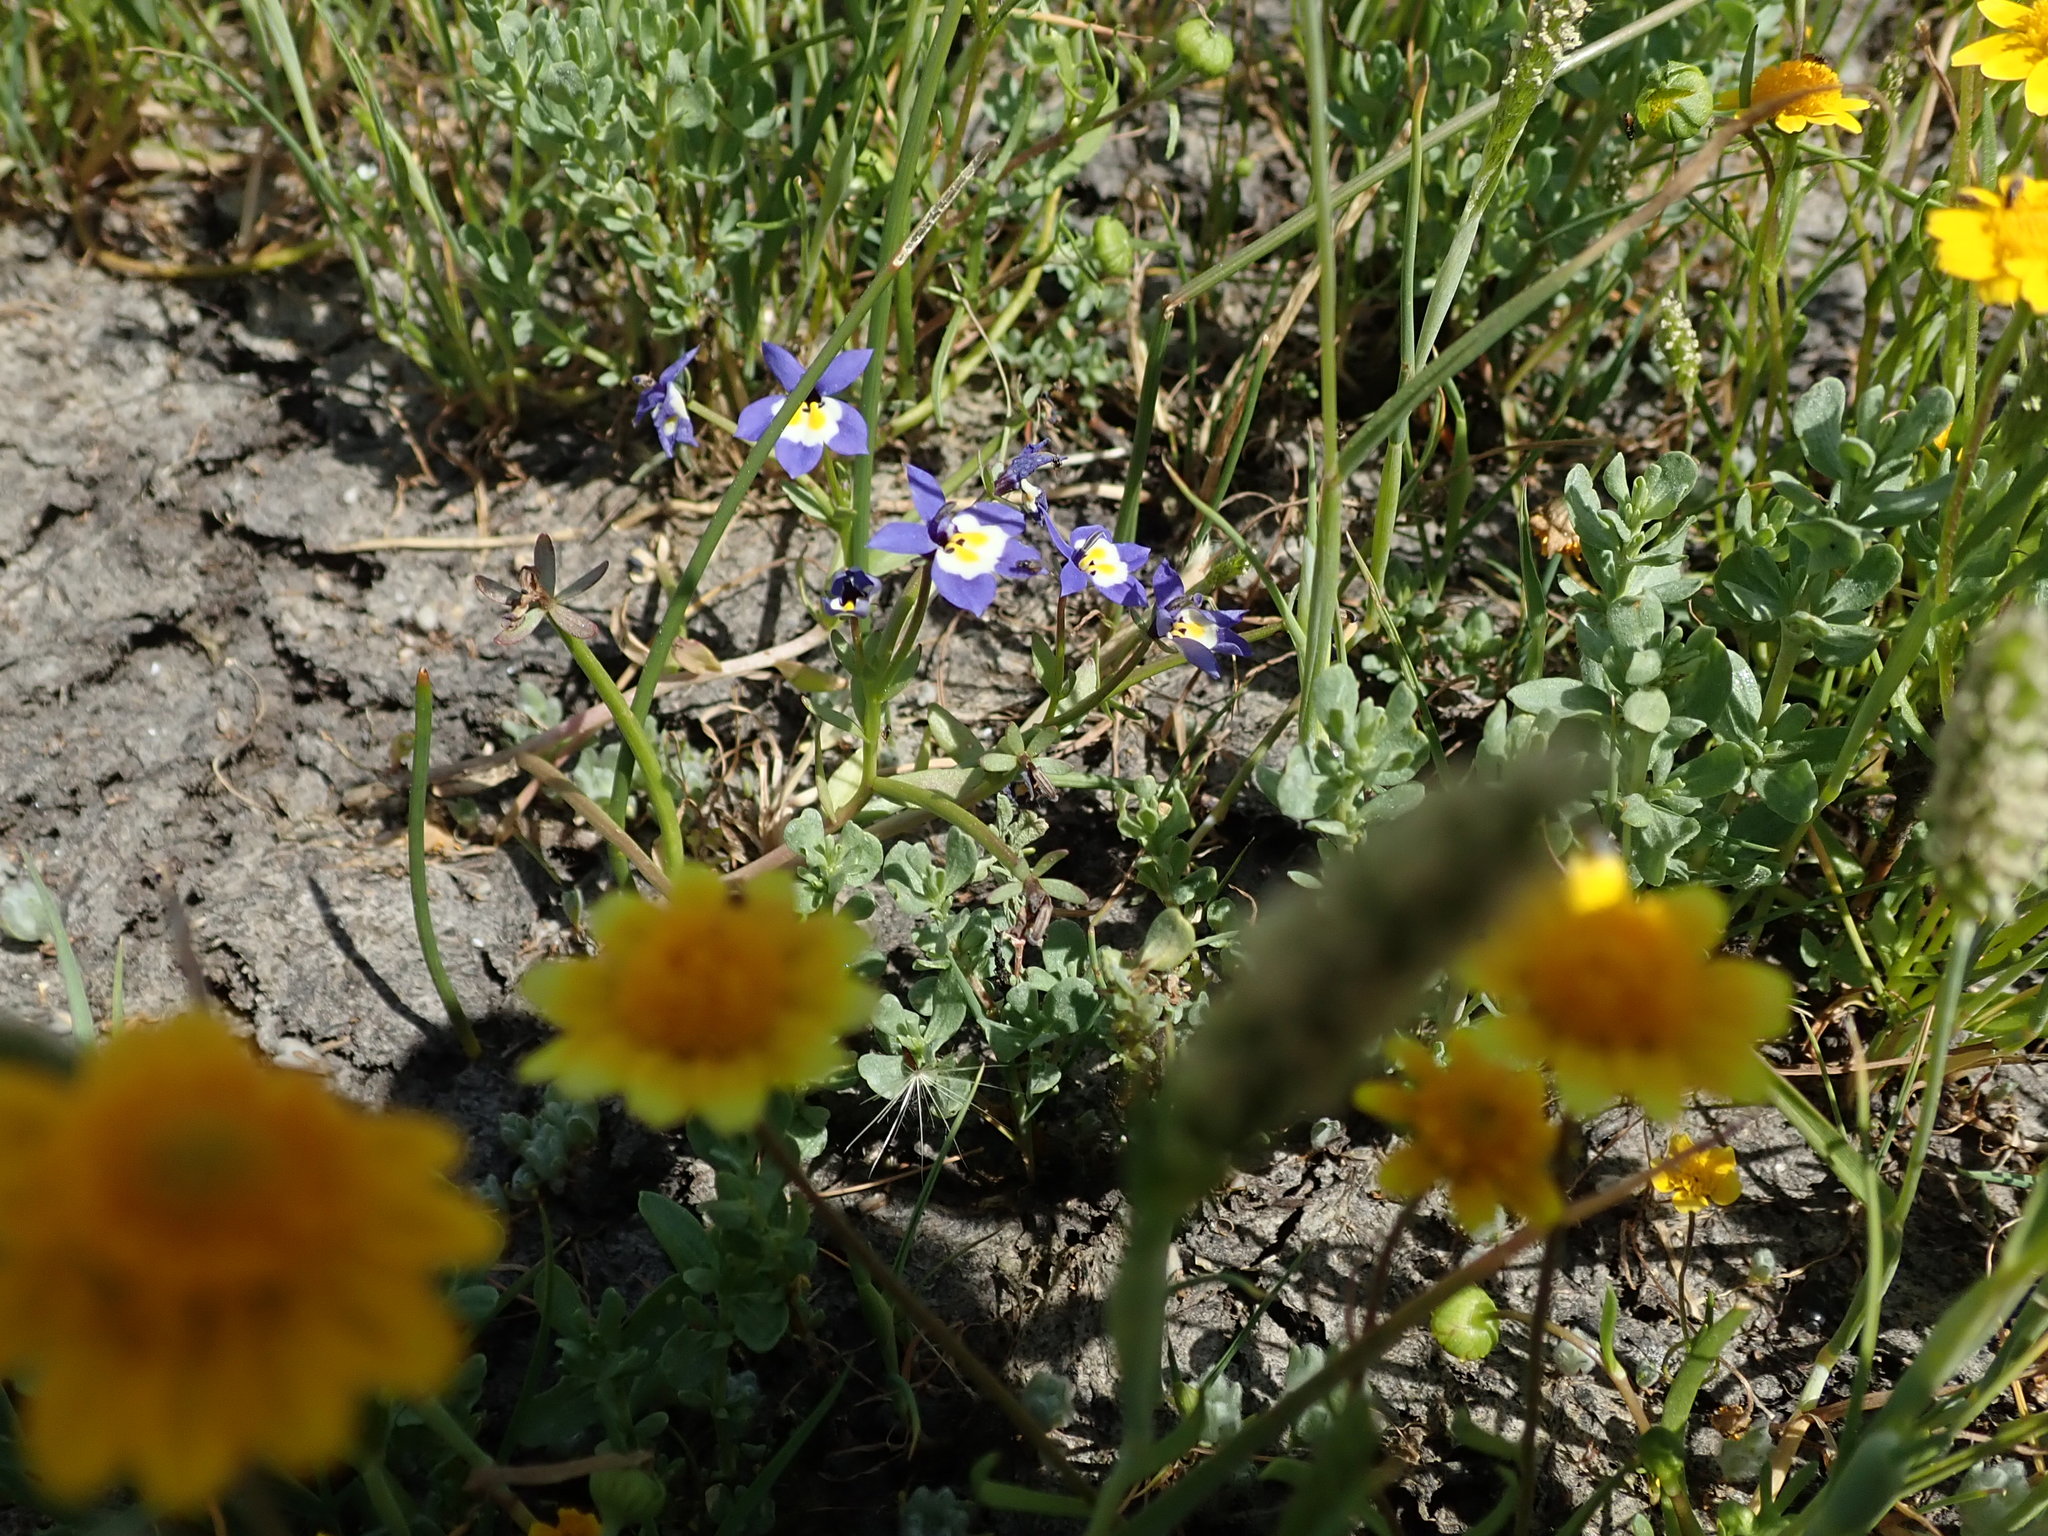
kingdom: Plantae
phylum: Tracheophyta
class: Magnoliopsida
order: Asterales
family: Campanulaceae
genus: Downingia
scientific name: Downingia pulchella
